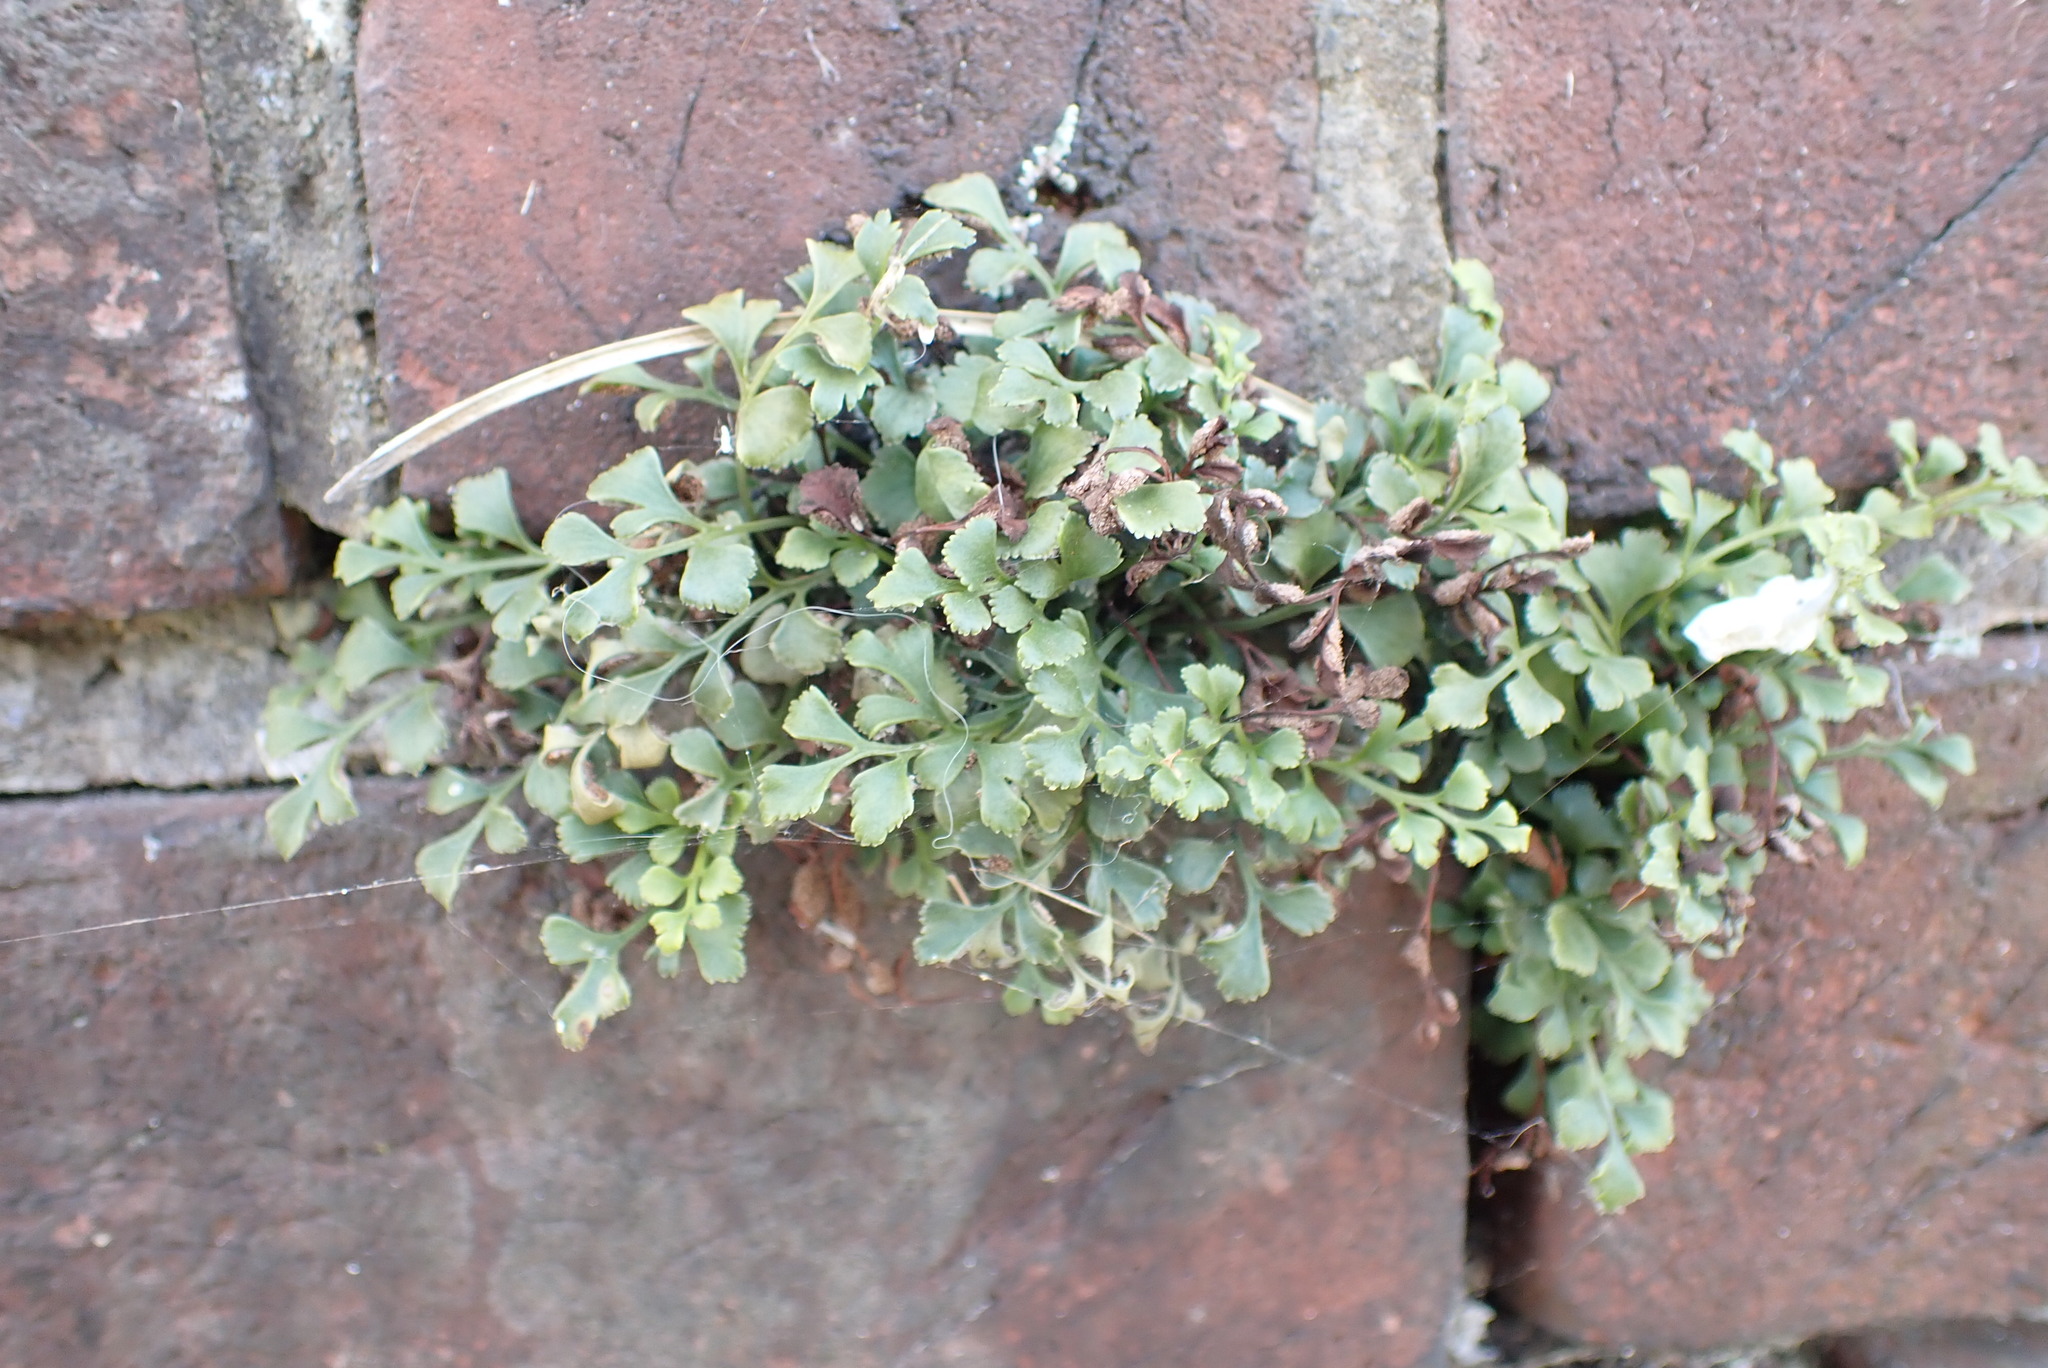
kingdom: Plantae
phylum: Tracheophyta
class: Polypodiopsida
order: Polypodiales
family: Aspleniaceae
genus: Asplenium
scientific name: Asplenium ruta-muraria
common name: Wall-rue
